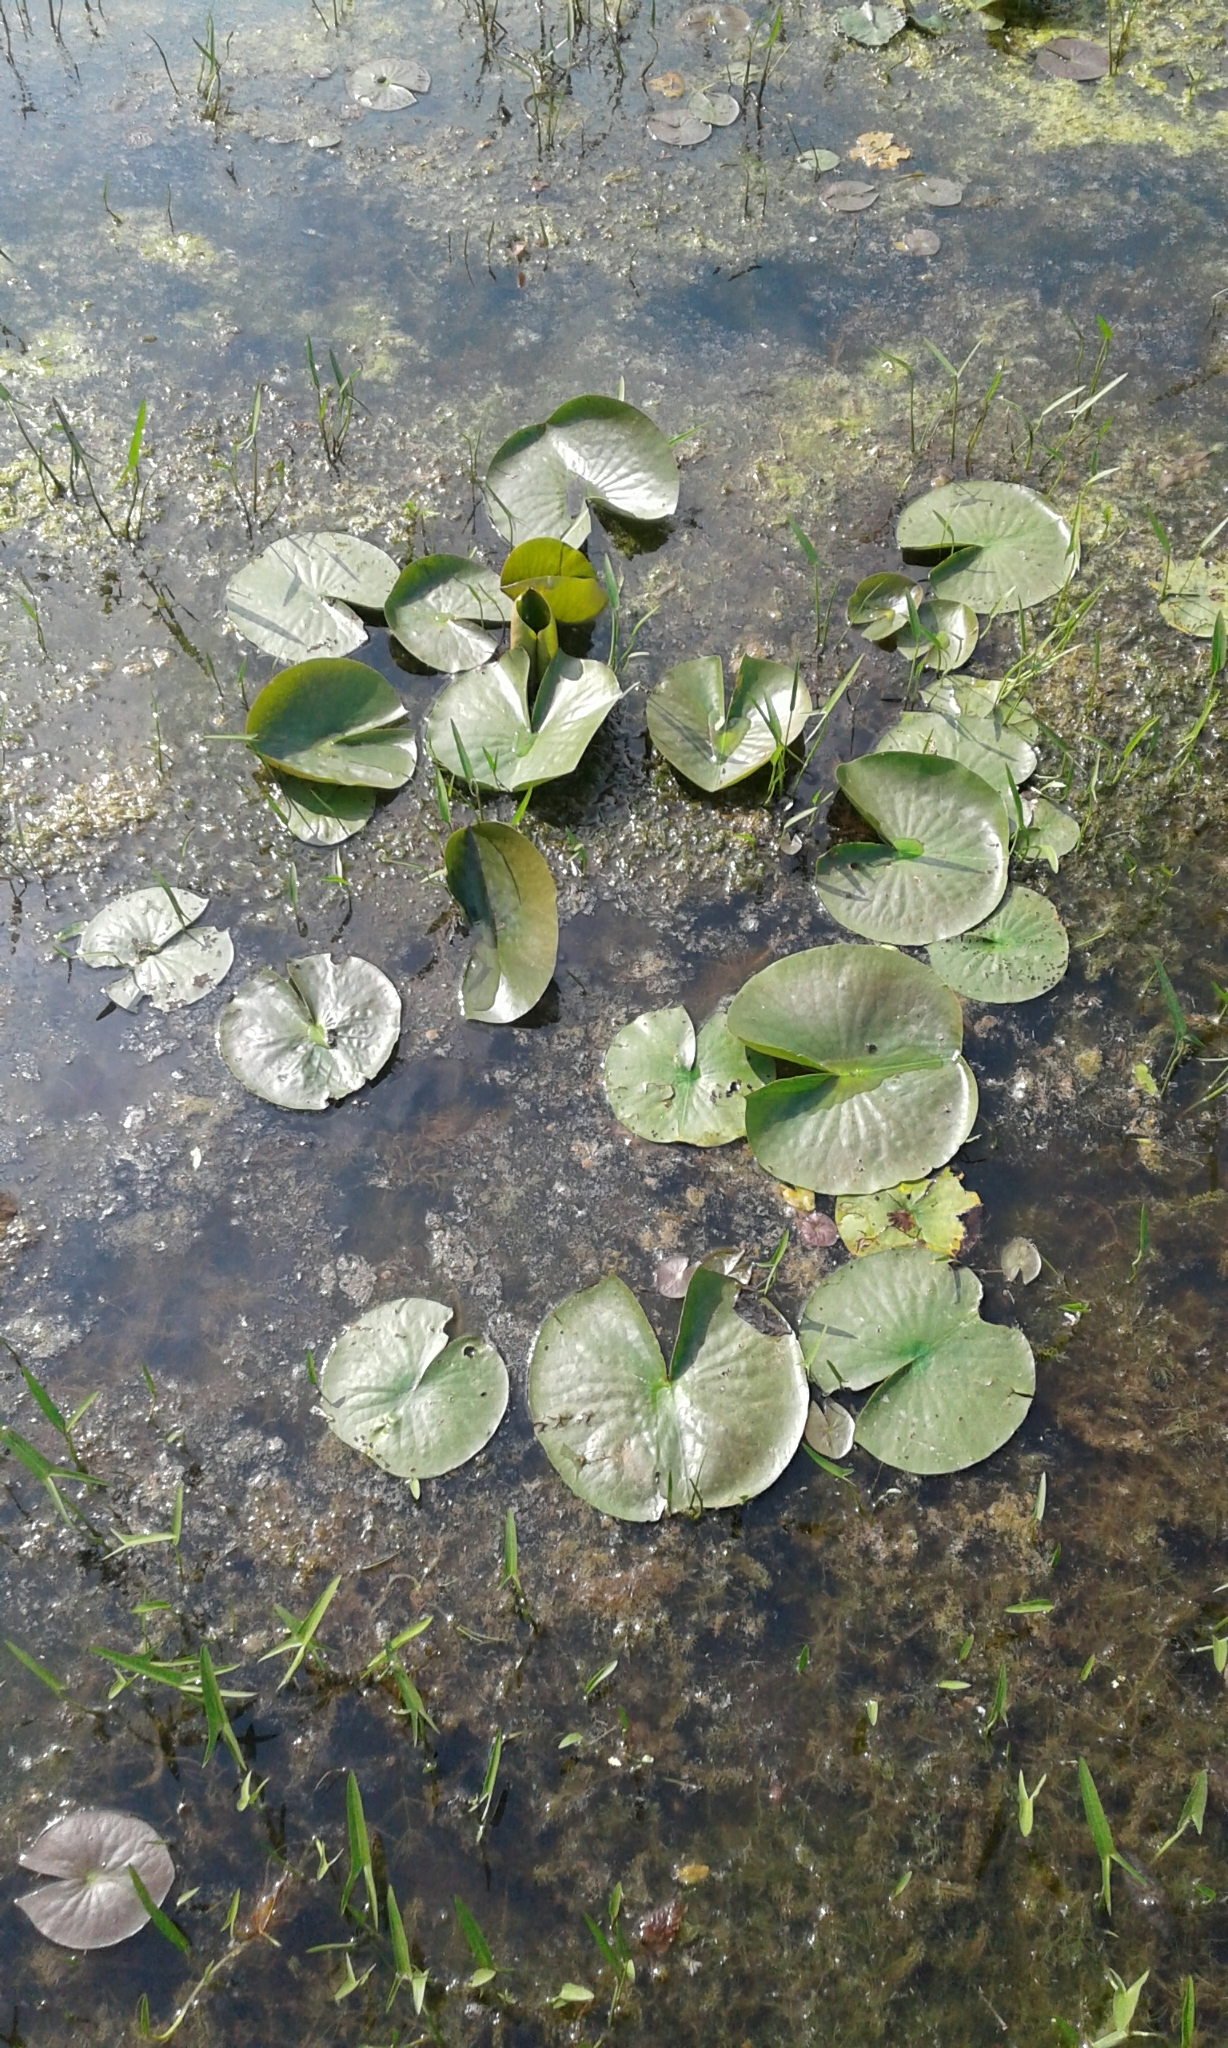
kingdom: Plantae
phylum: Tracheophyta
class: Magnoliopsida
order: Nymphaeales
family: Nymphaeaceae
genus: Nymphaea
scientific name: Nymphaea odorata
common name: Fragrant water-lily
